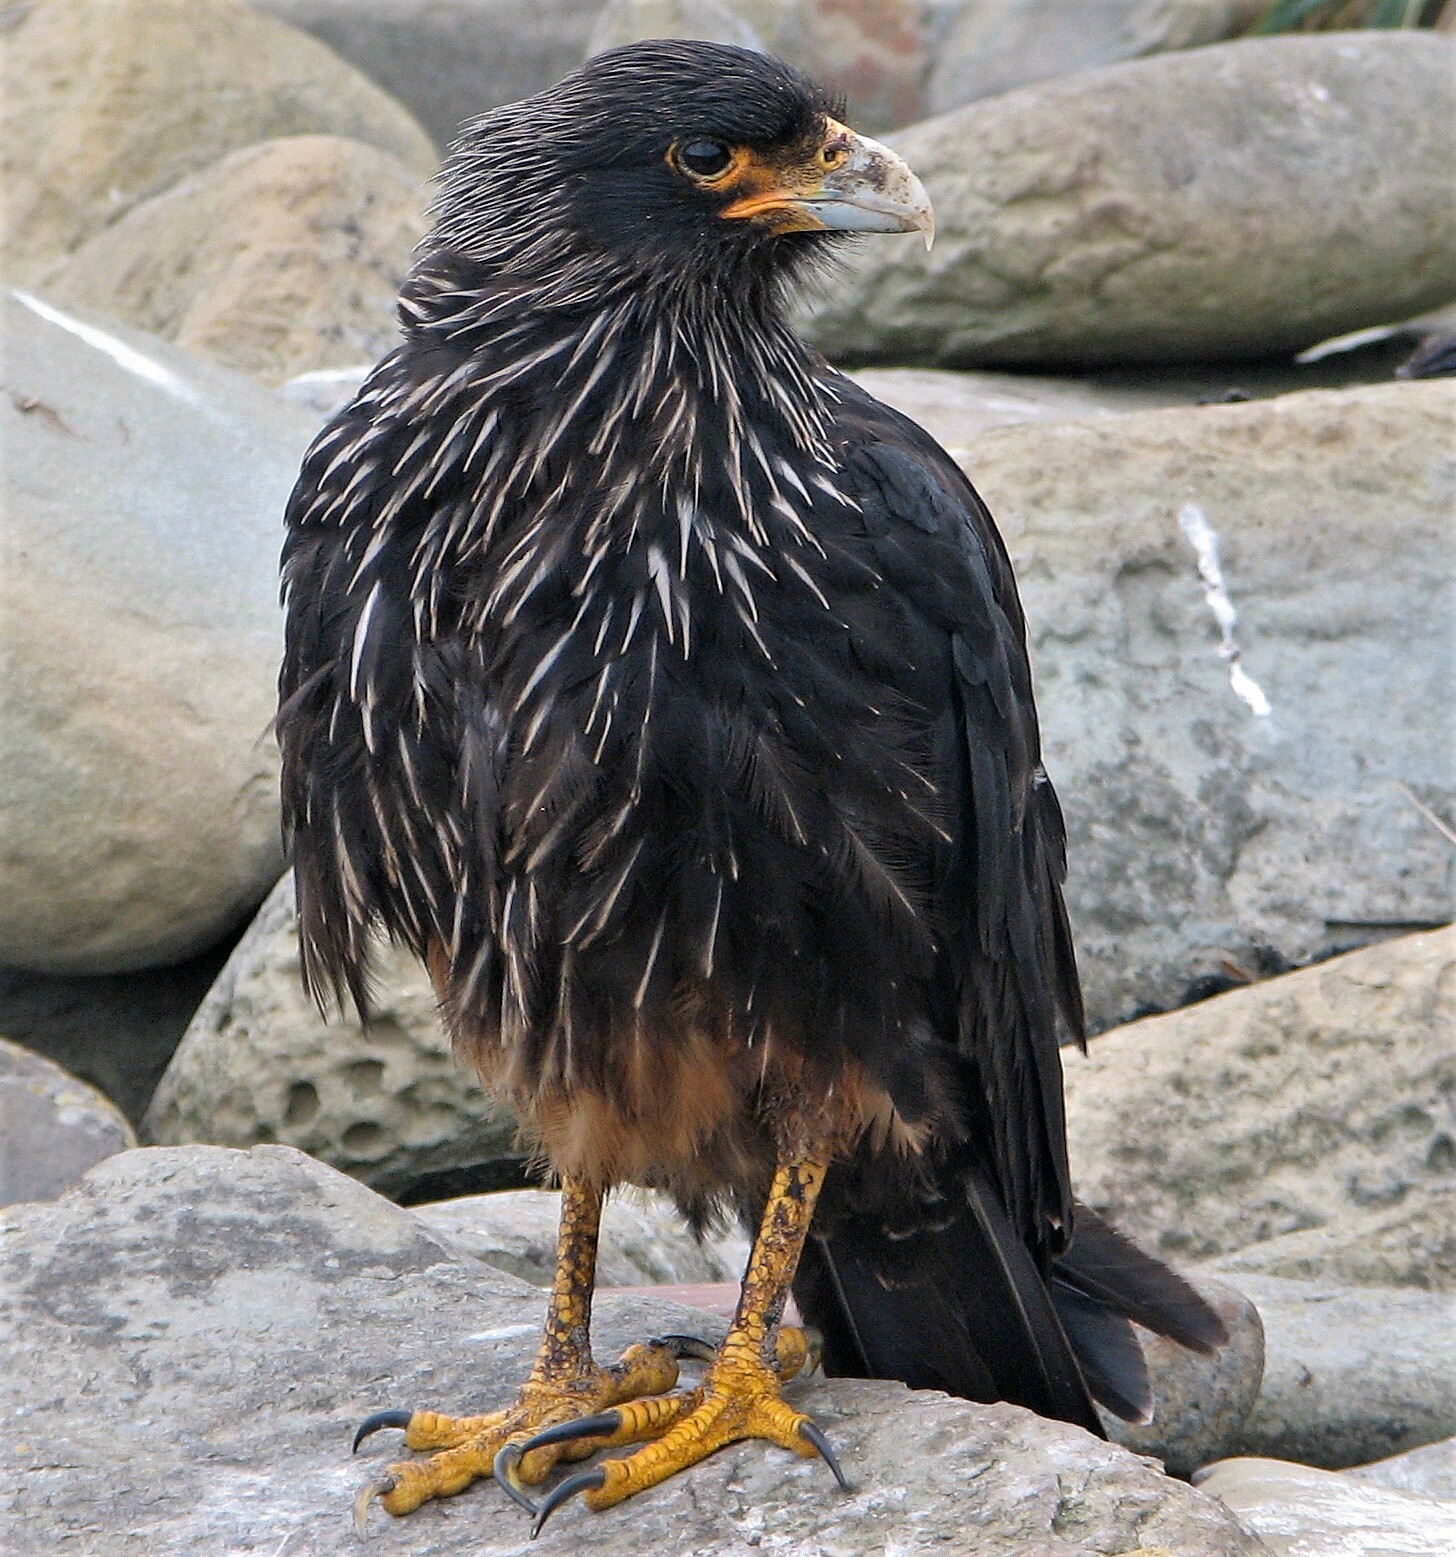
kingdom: Animalia
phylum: Chordata
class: Aves
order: Falconiformes
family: Falconidae
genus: Daptrius
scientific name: Daptrius
